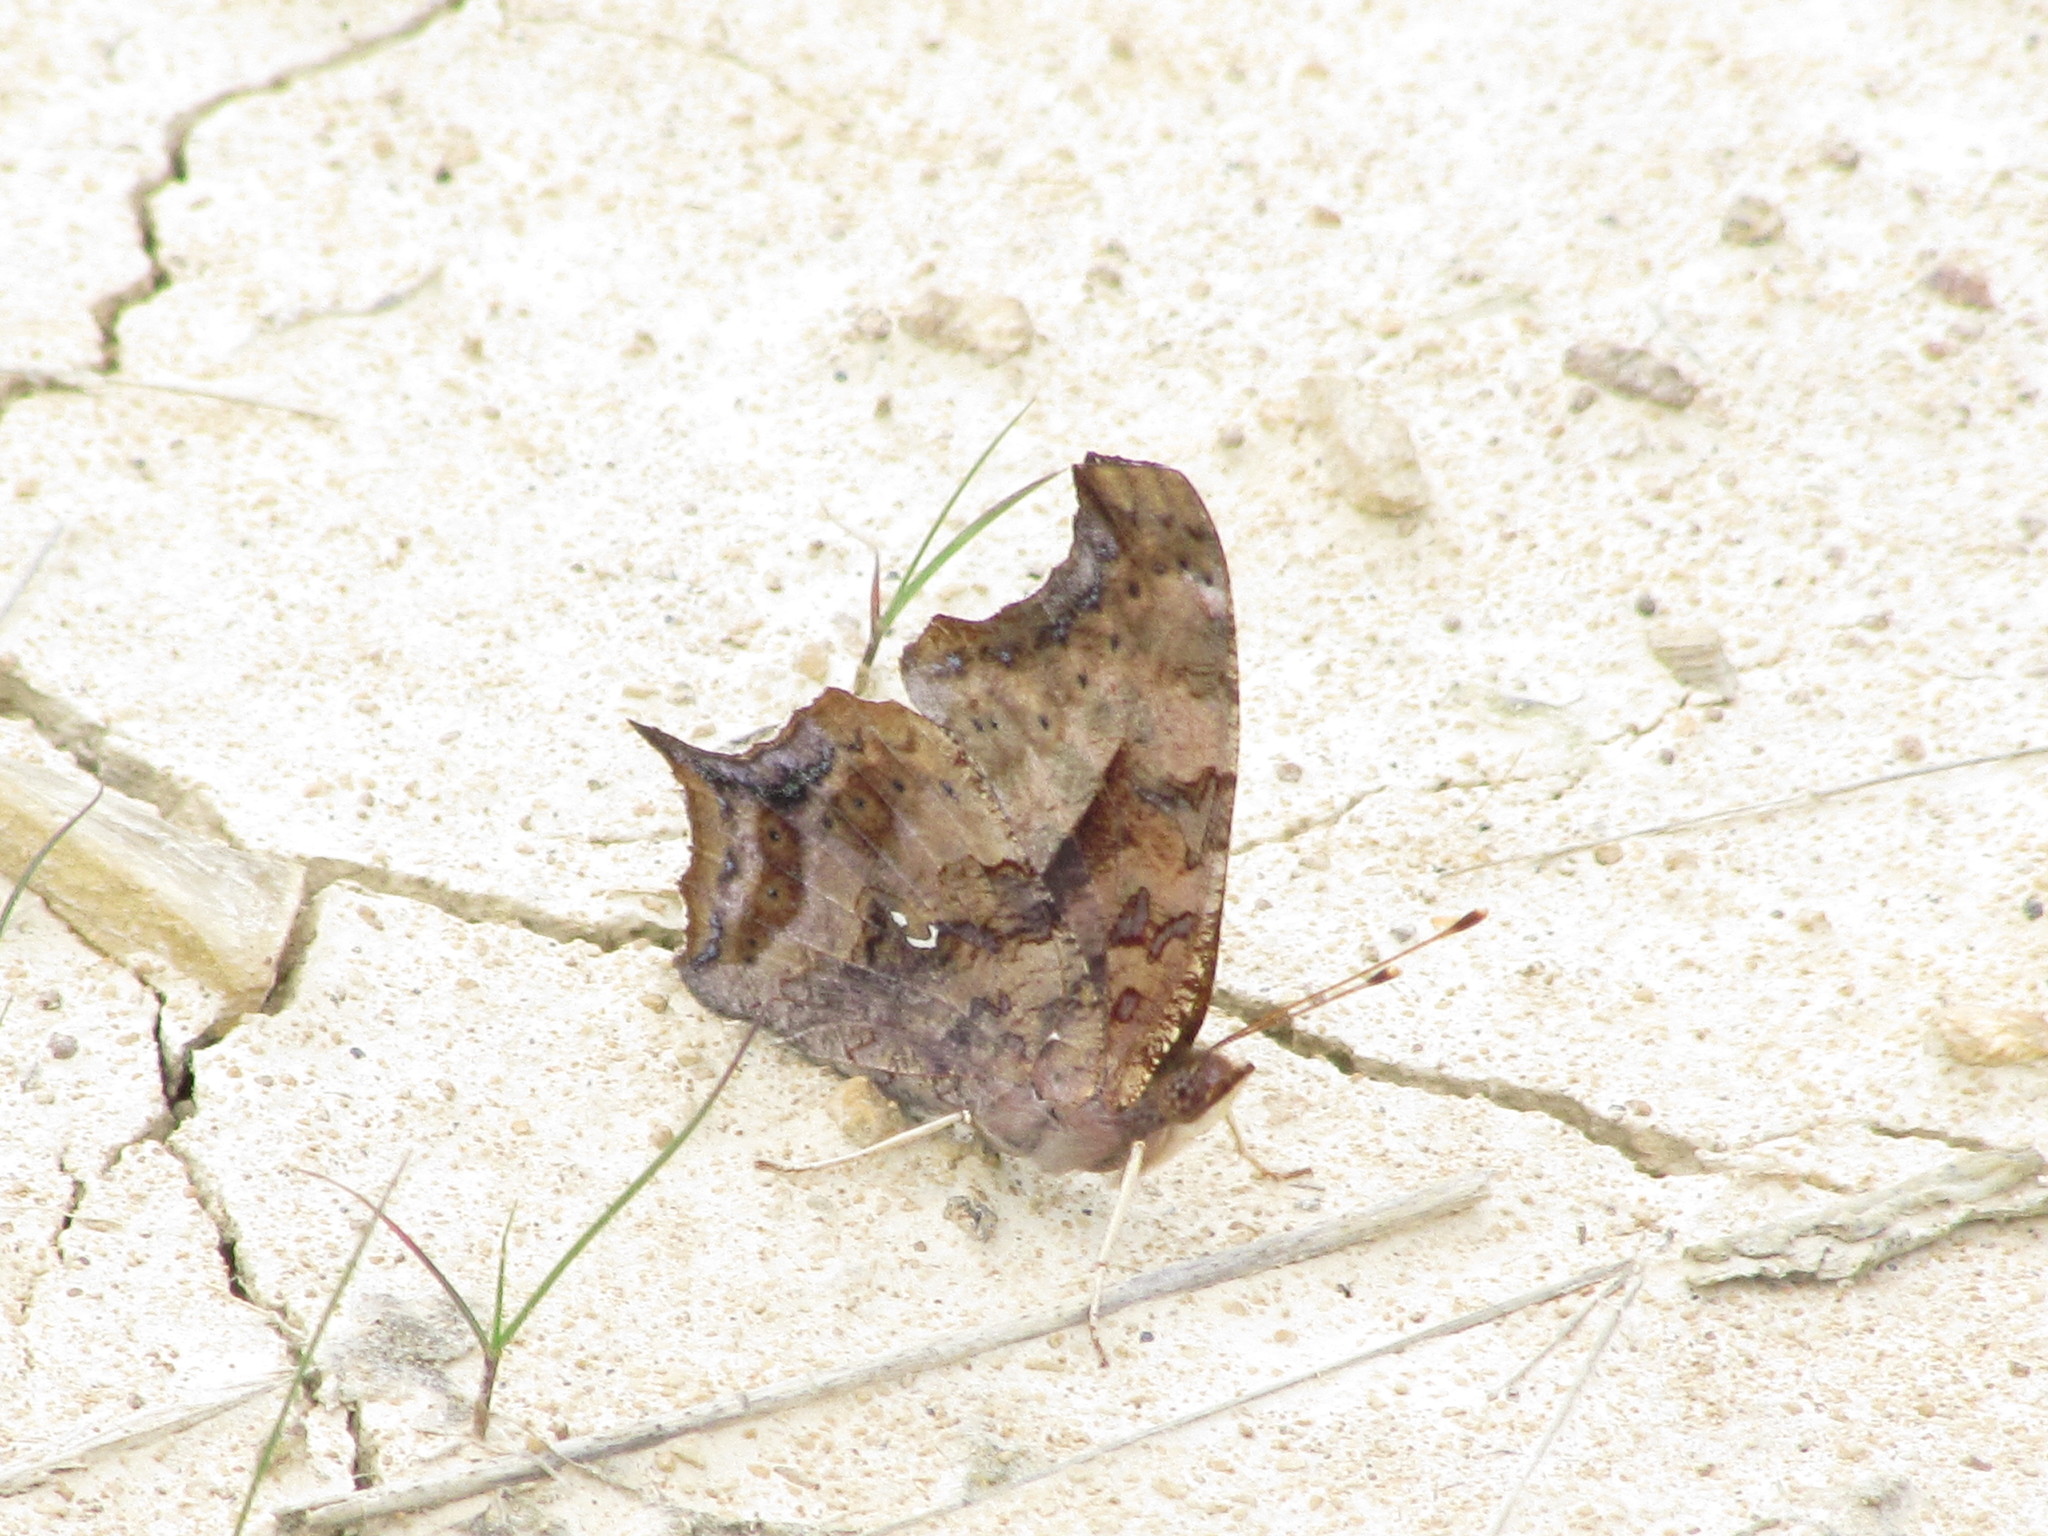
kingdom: Animalia
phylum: Arthropoda
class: Insecta
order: Lepidoptera
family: Nymphalidae
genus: Polygonia
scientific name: Polygonia interrogationis
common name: Question mark
